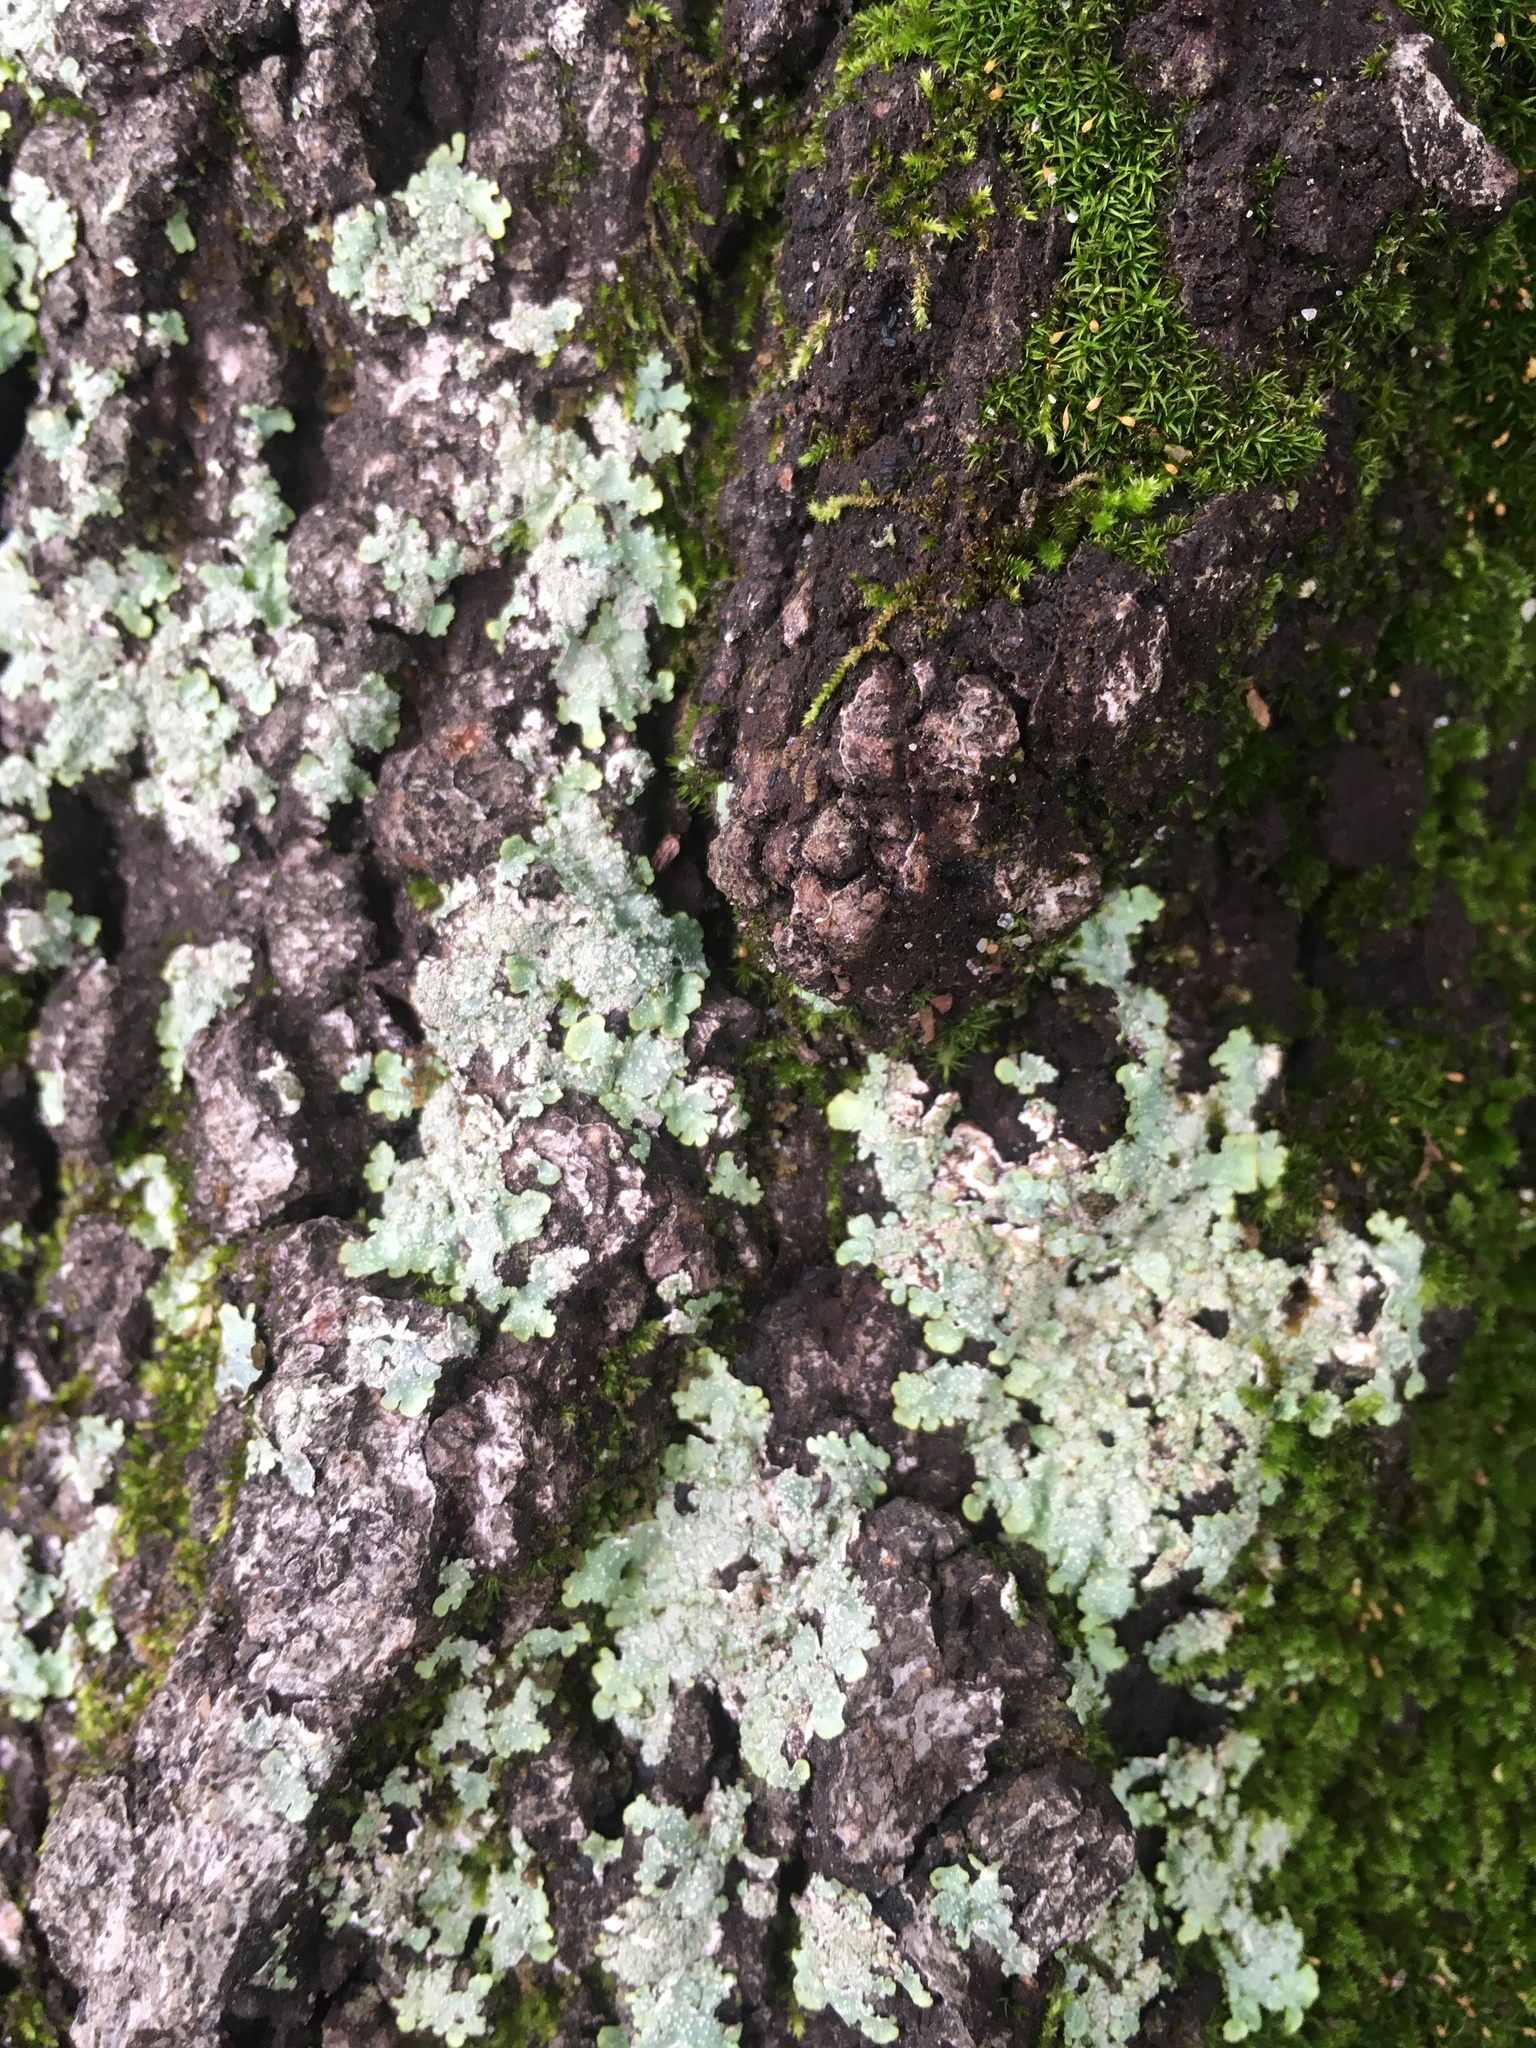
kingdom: Fungi
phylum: Ascomycota
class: Lecanoromycetes
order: Lecanorales
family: Parmeliaceae
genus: Flavoparmelia
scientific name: Flavoparmelia caperata
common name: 40-mile per hour lichen
